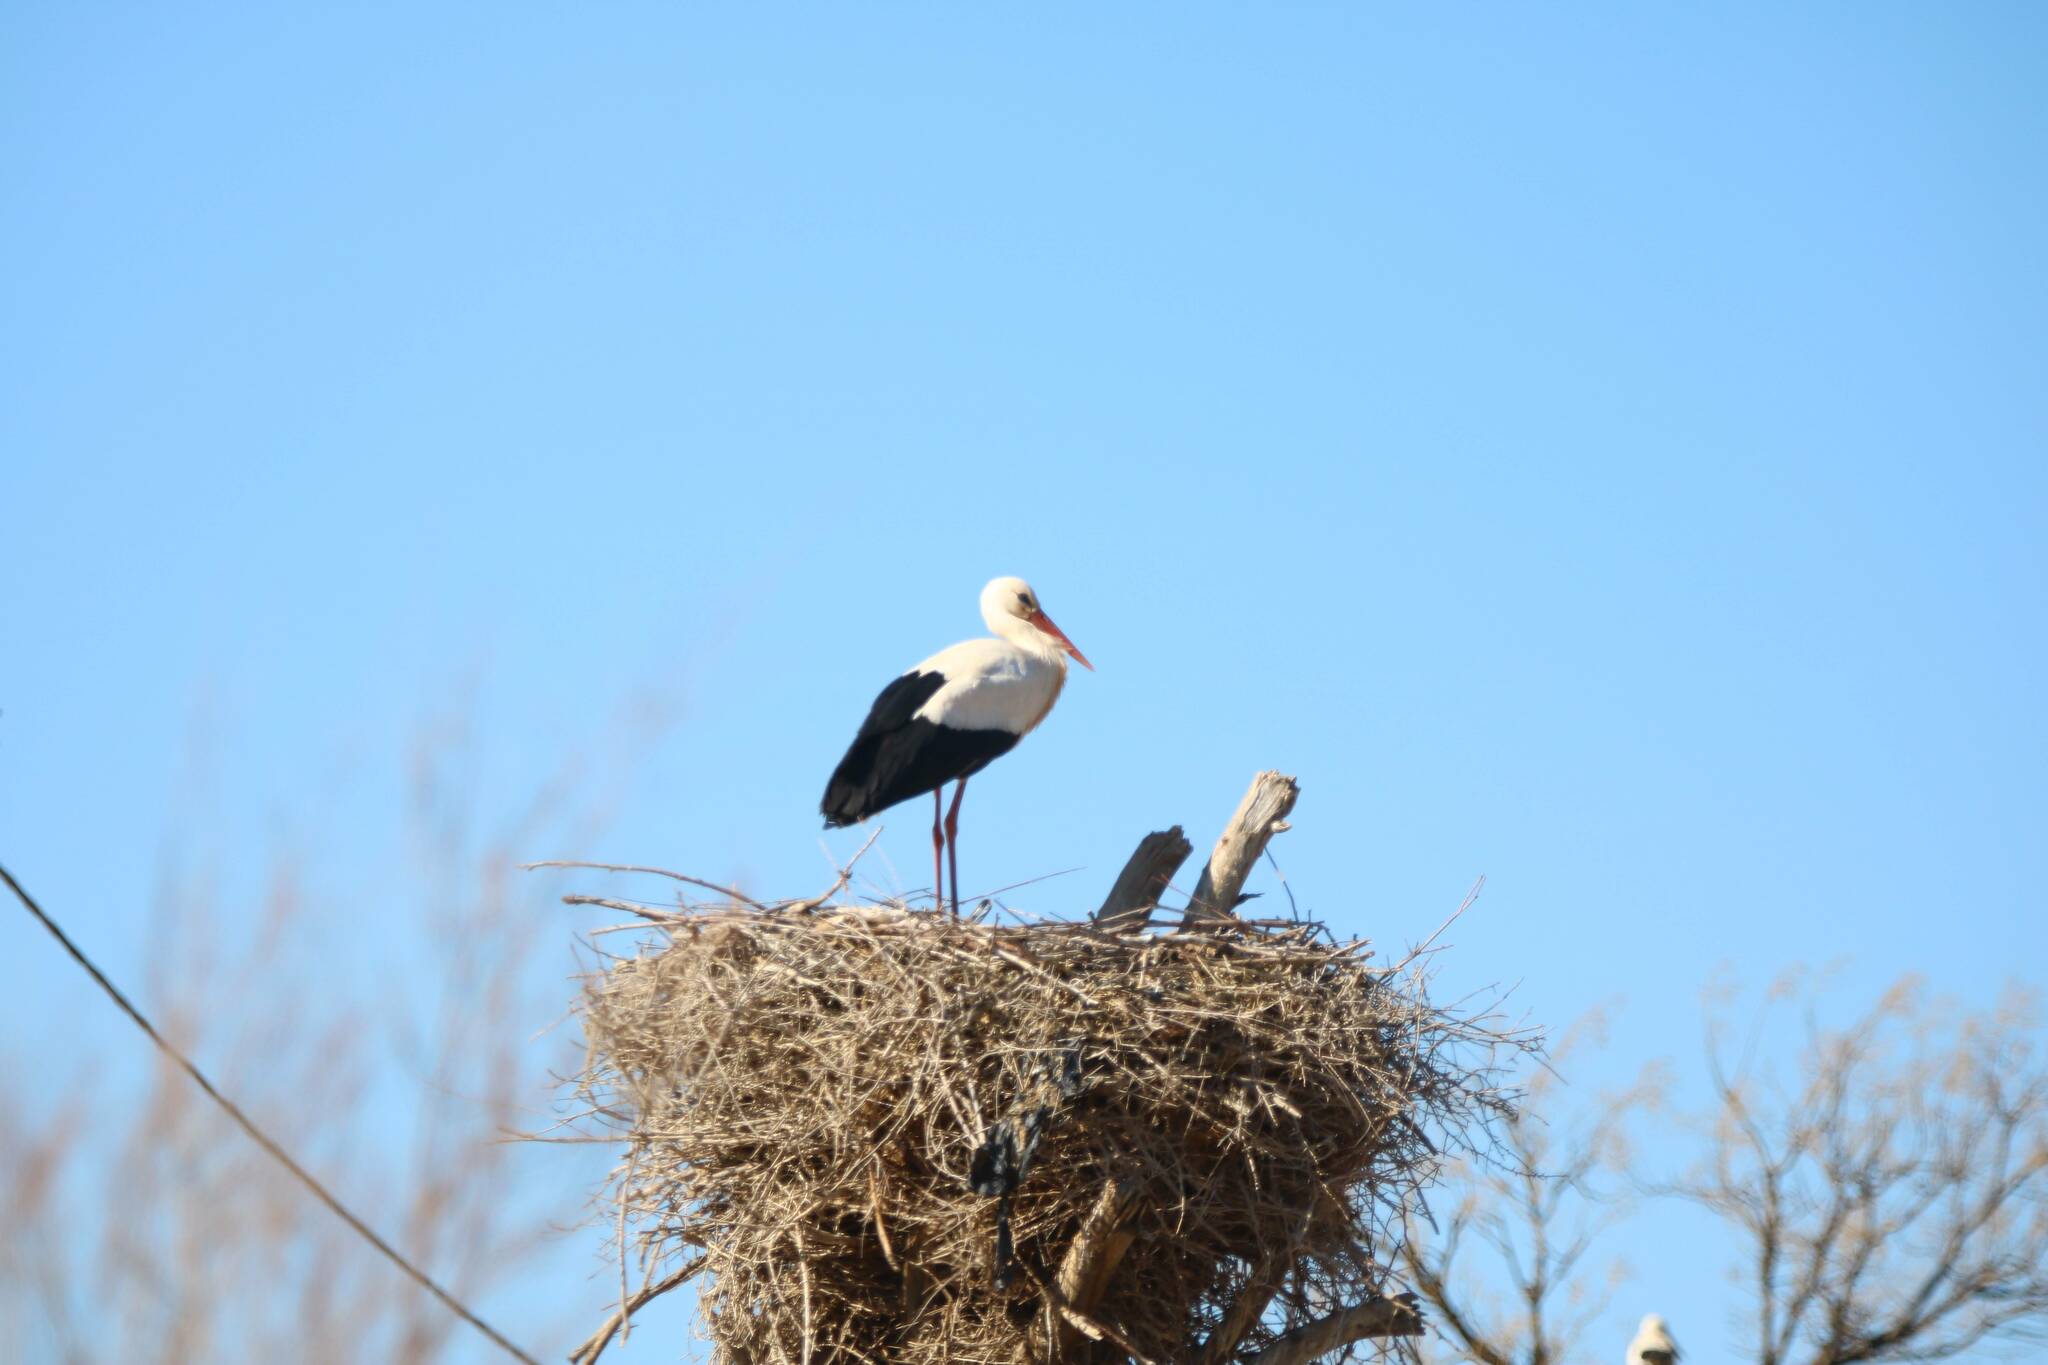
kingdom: Animalia
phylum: Chordata
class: Aves
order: Ciconiiformes
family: Ciconiidae
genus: Ciconia
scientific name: Ciconia ciconia
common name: White stork
